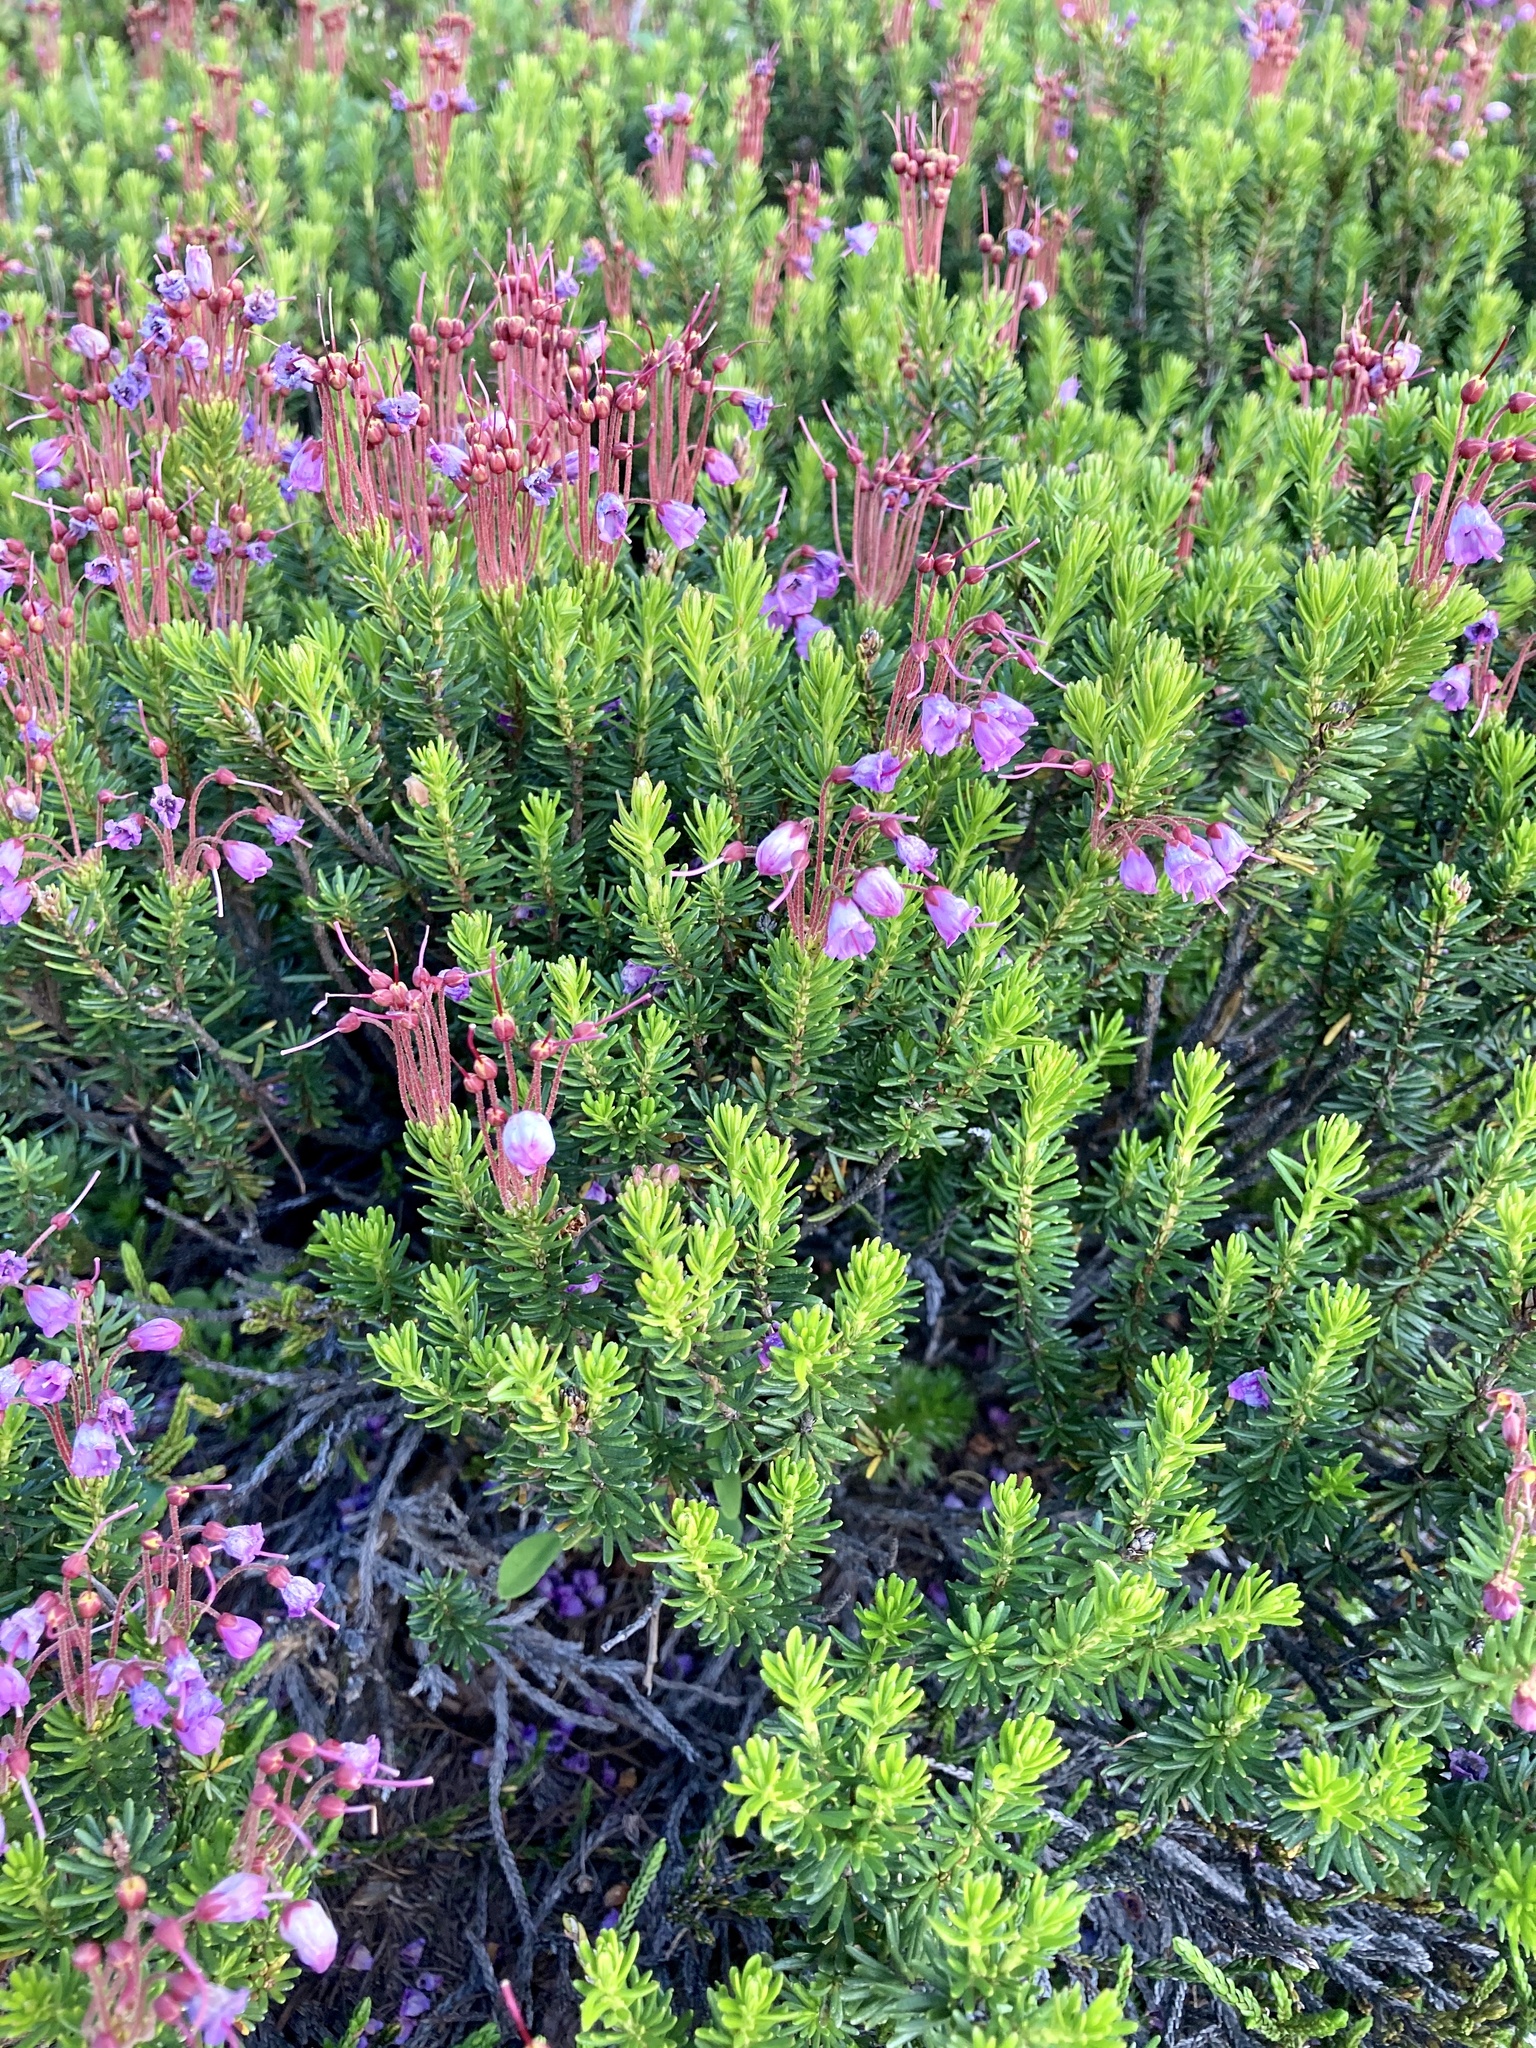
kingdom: Plantae
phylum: Tracheophyta
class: Magnoliopsida
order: Ericales
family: Ericaceae
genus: Phyllodoce
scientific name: Phyllodoce empetriformis
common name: Pink mountain heather
